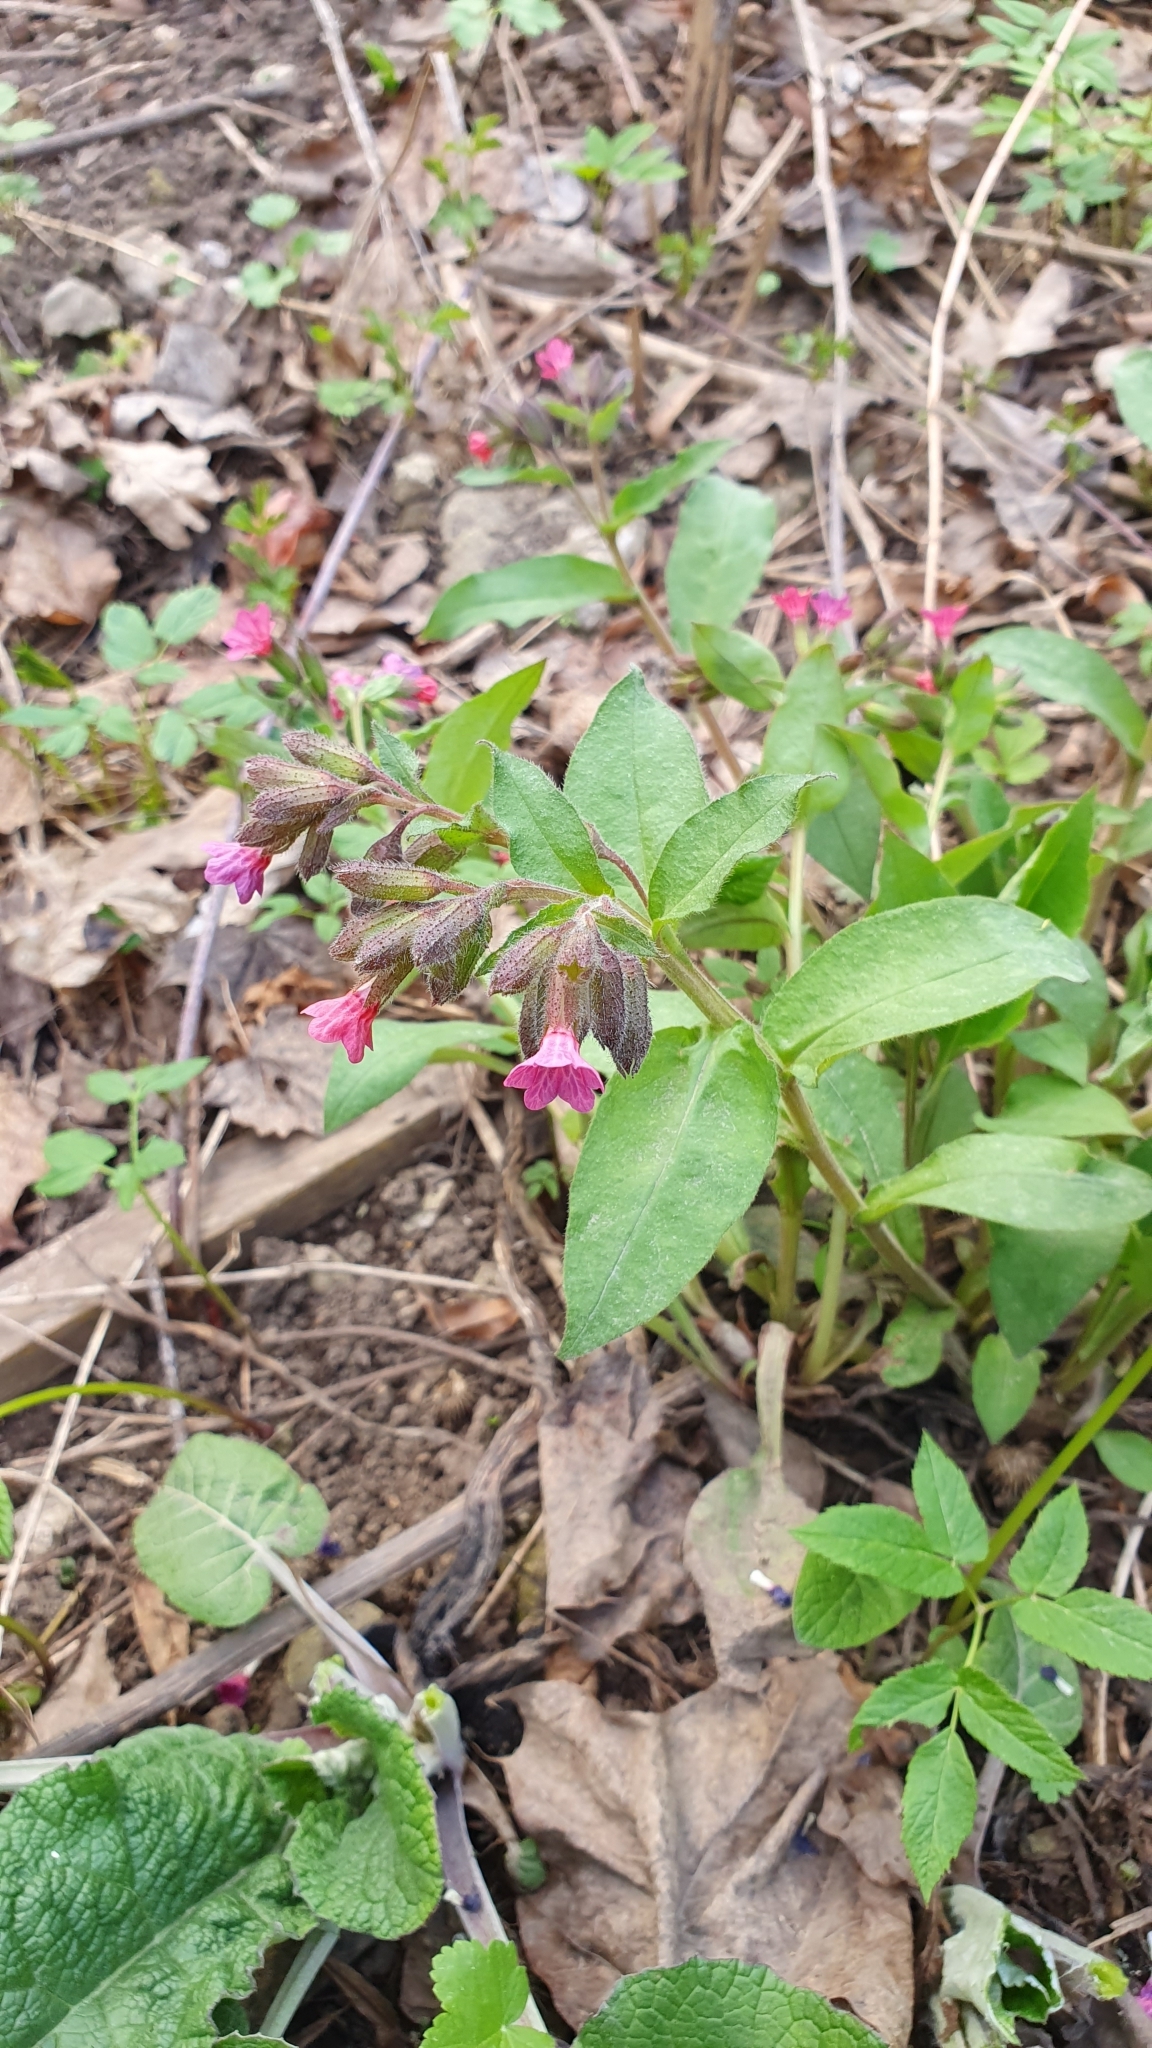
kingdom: Plantae
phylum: Tracheophyta
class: Magnoliopsida
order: Boraginales
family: Boraginaceae
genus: Pulmonaria
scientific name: Pulmonaria obscura
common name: Suffolk lungwort
